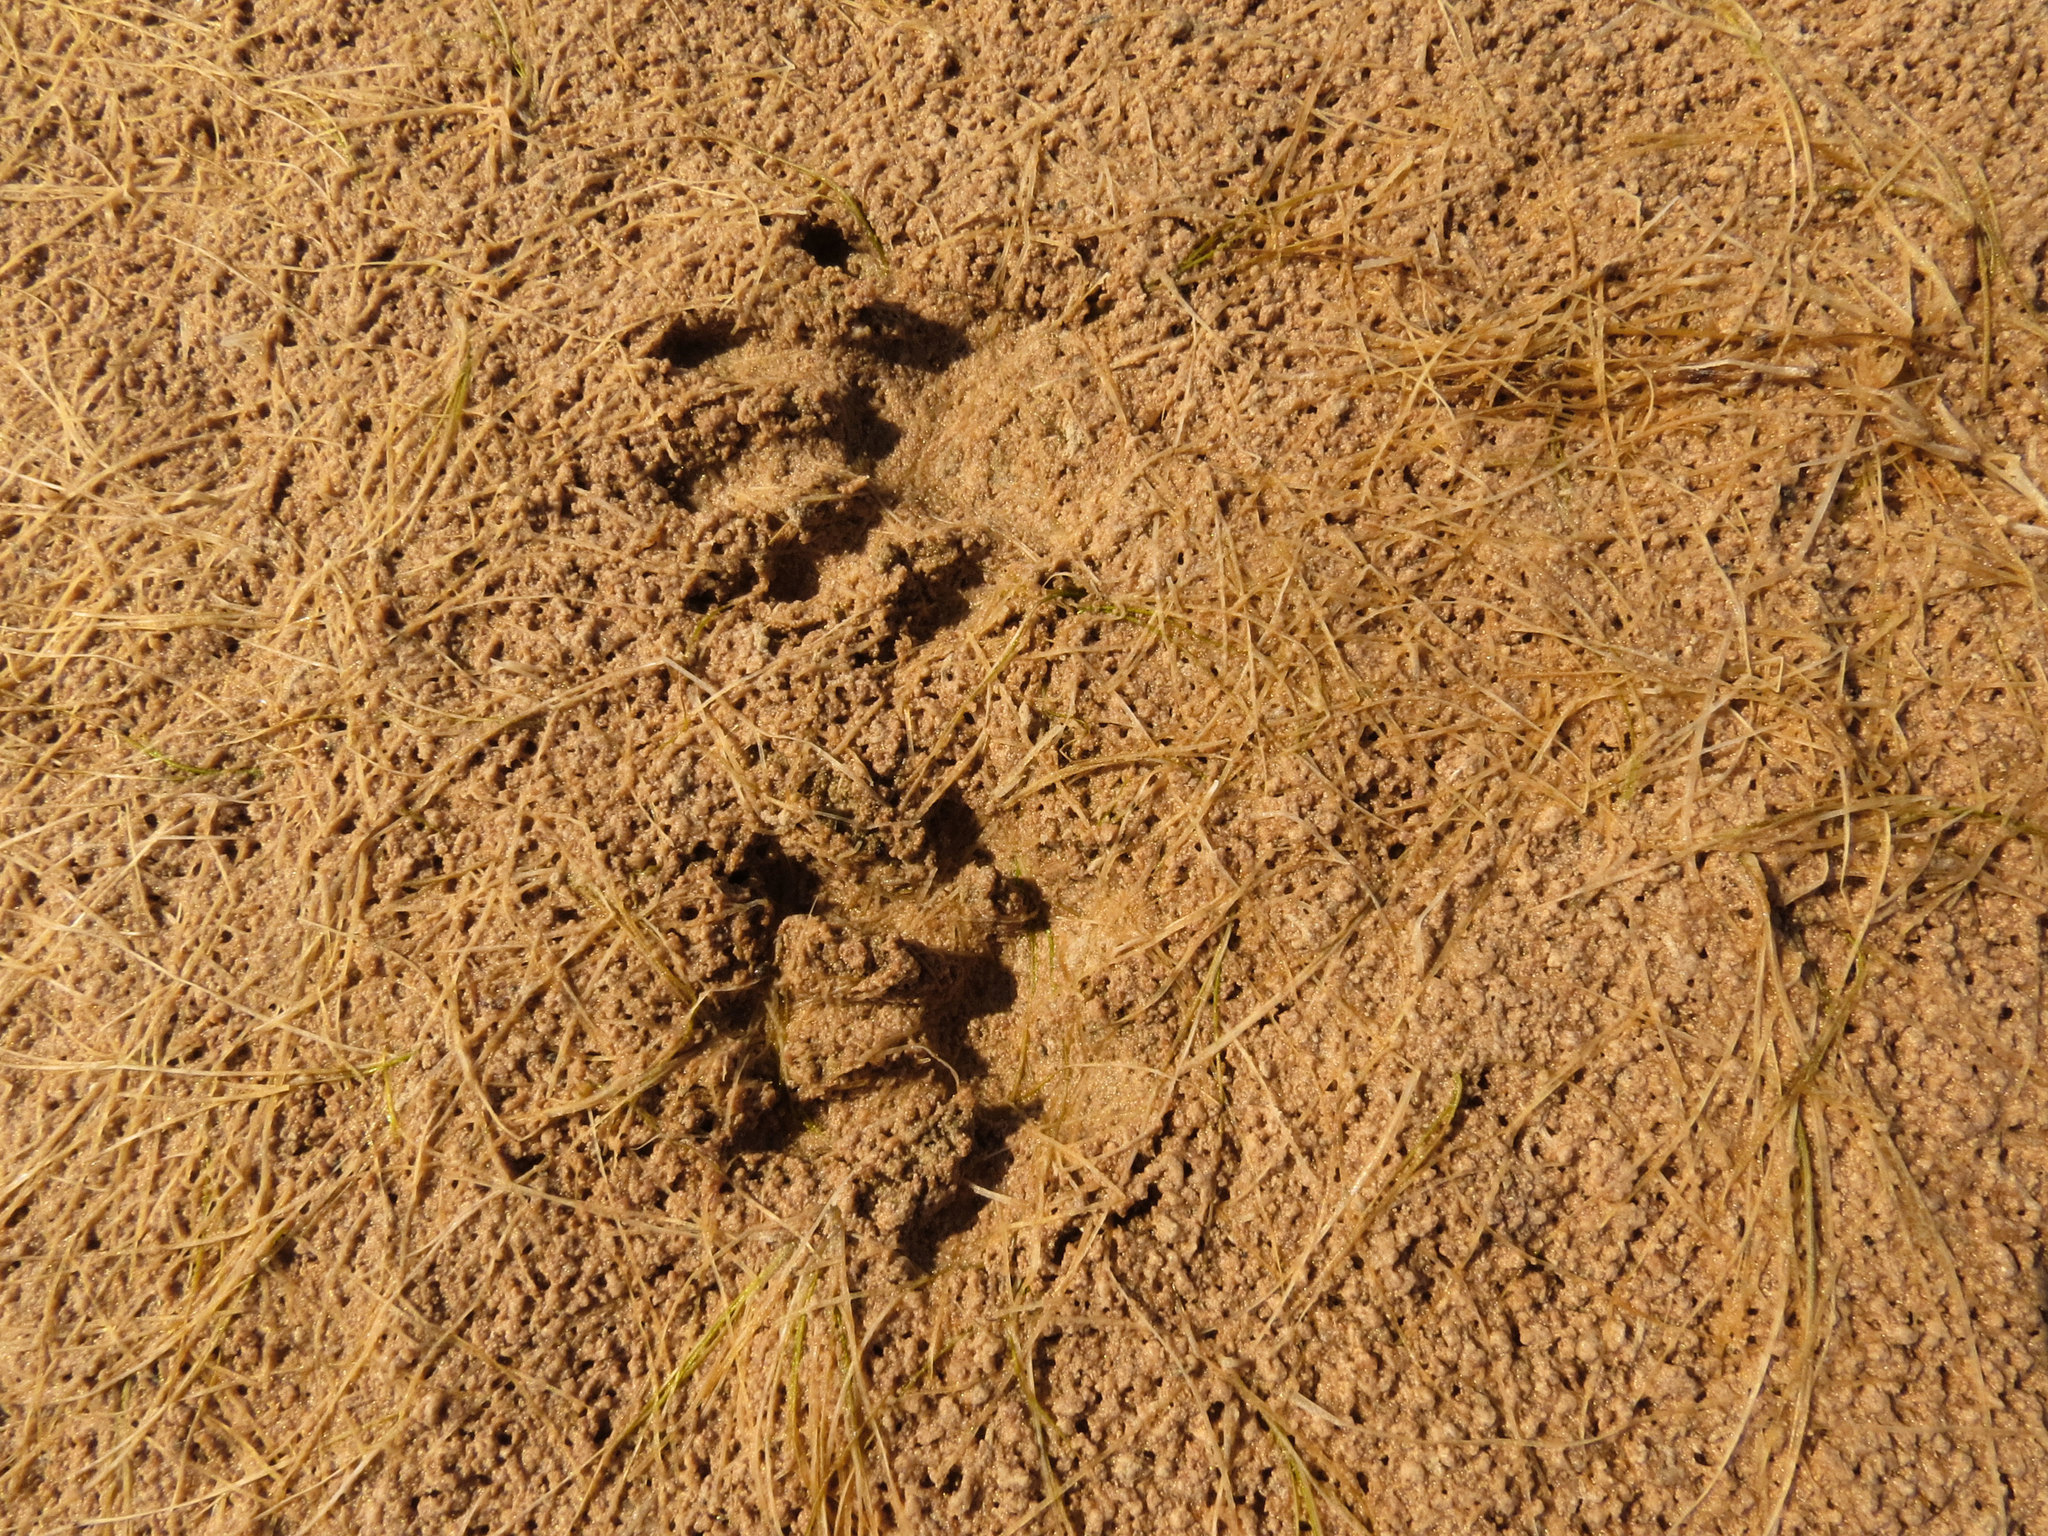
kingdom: Animalia
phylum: Chordata
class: Mammalia
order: Carnivora
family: Procyonidae
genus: Procyon
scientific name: Procyon lotor
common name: Raccoon
